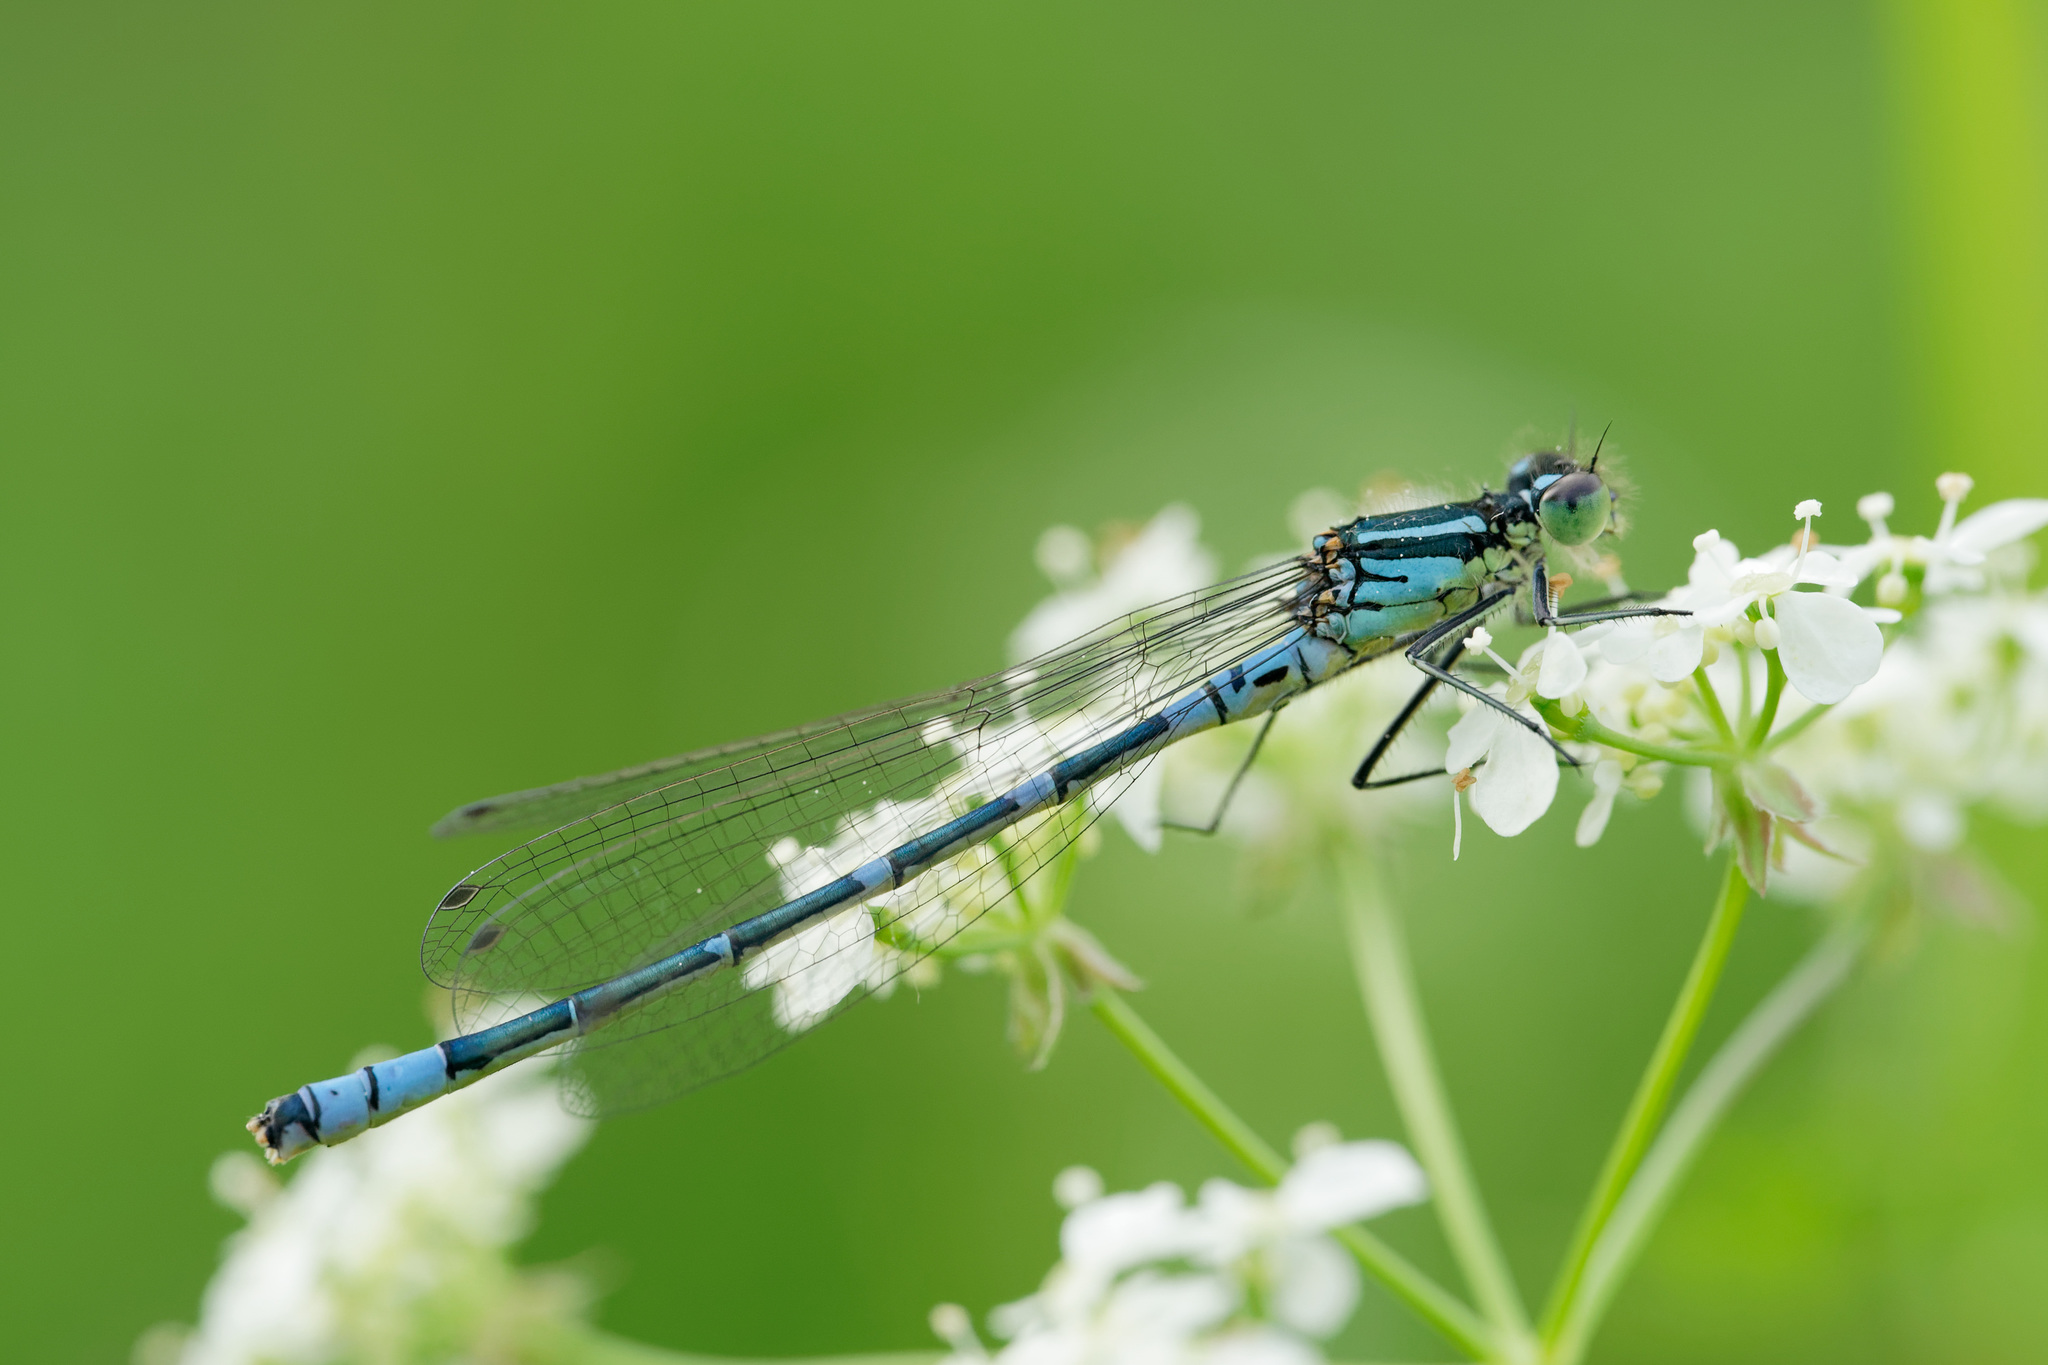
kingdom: Animalia
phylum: Arthropoda
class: Insecta
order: Odonata
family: Coenagrionidae
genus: Coenagrion
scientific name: Coenagrion lunulatum
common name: Irish damselfly
